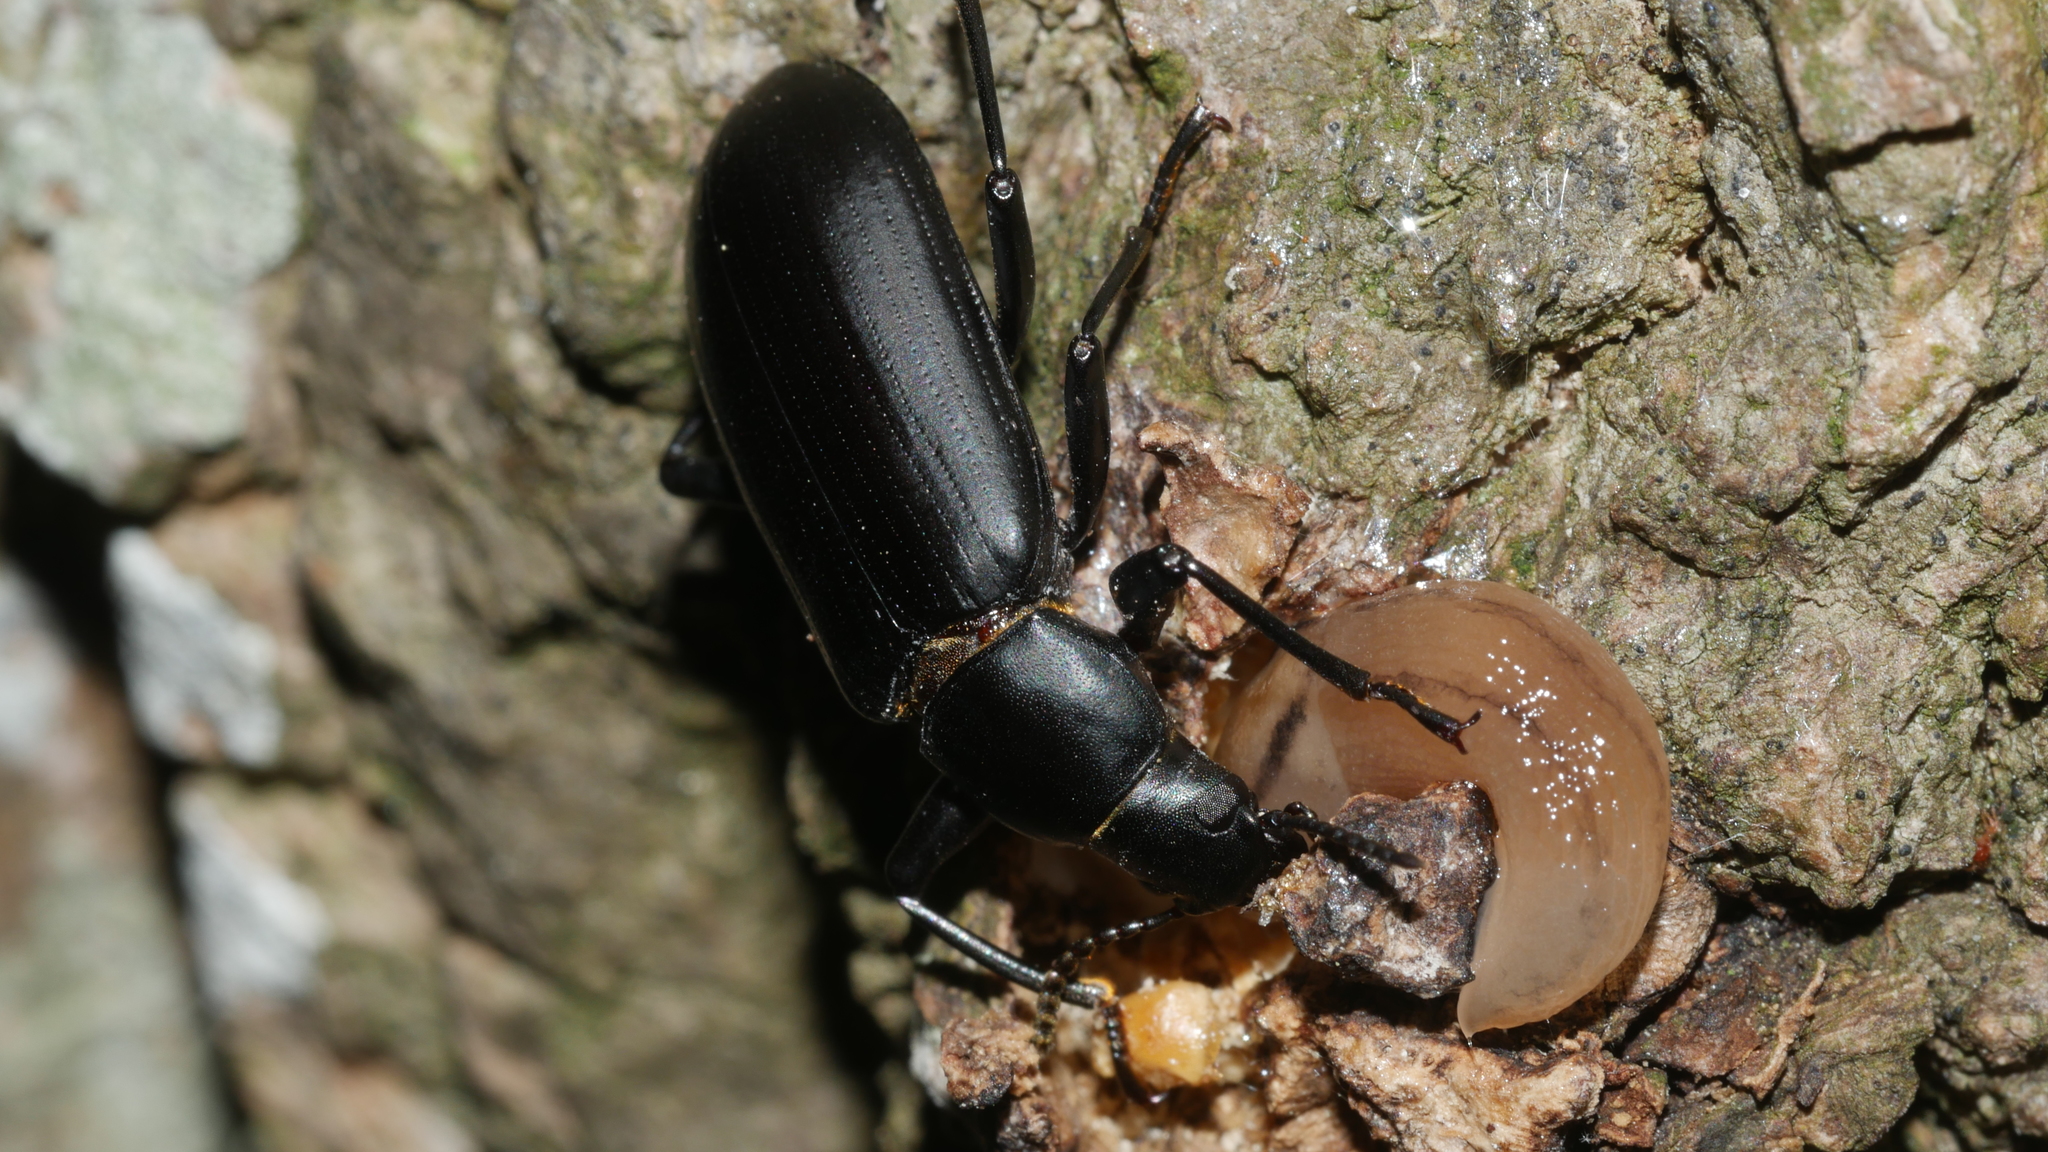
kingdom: Animalia
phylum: Arthropoda
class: Insecta
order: Coleoptera
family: Tenebrionidae
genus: Alobates
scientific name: Alobates
